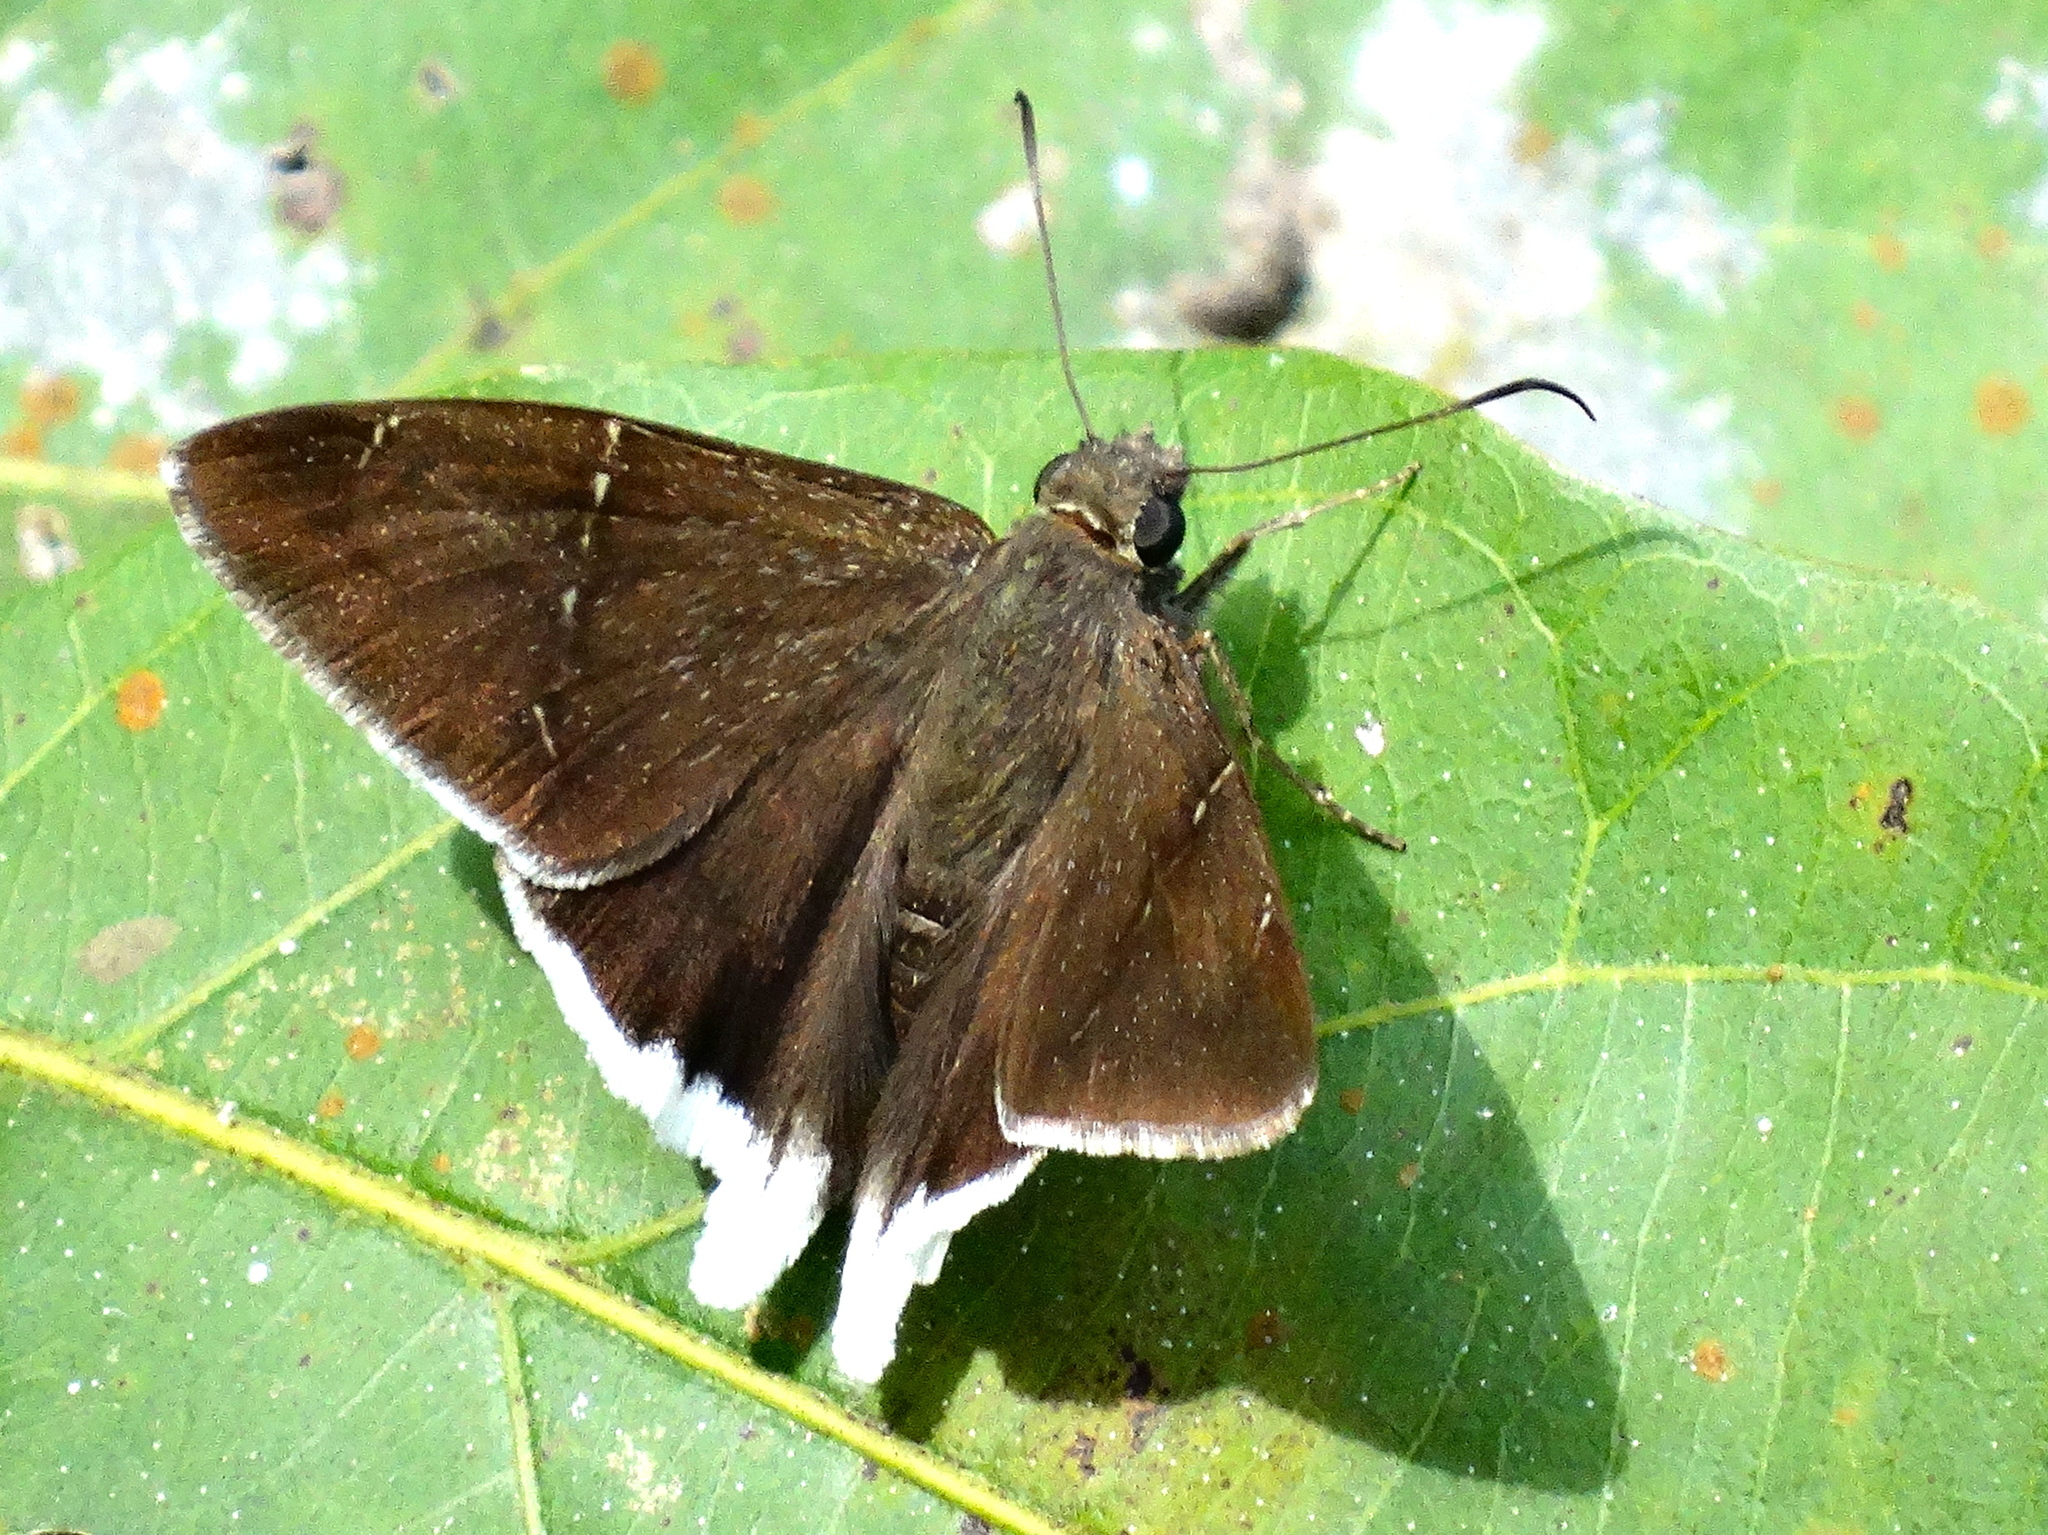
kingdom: Animalia
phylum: Arthropoda
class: Insecta
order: Lepidoptera
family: Hesperiidae
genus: Achalarus
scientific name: Achalarus
